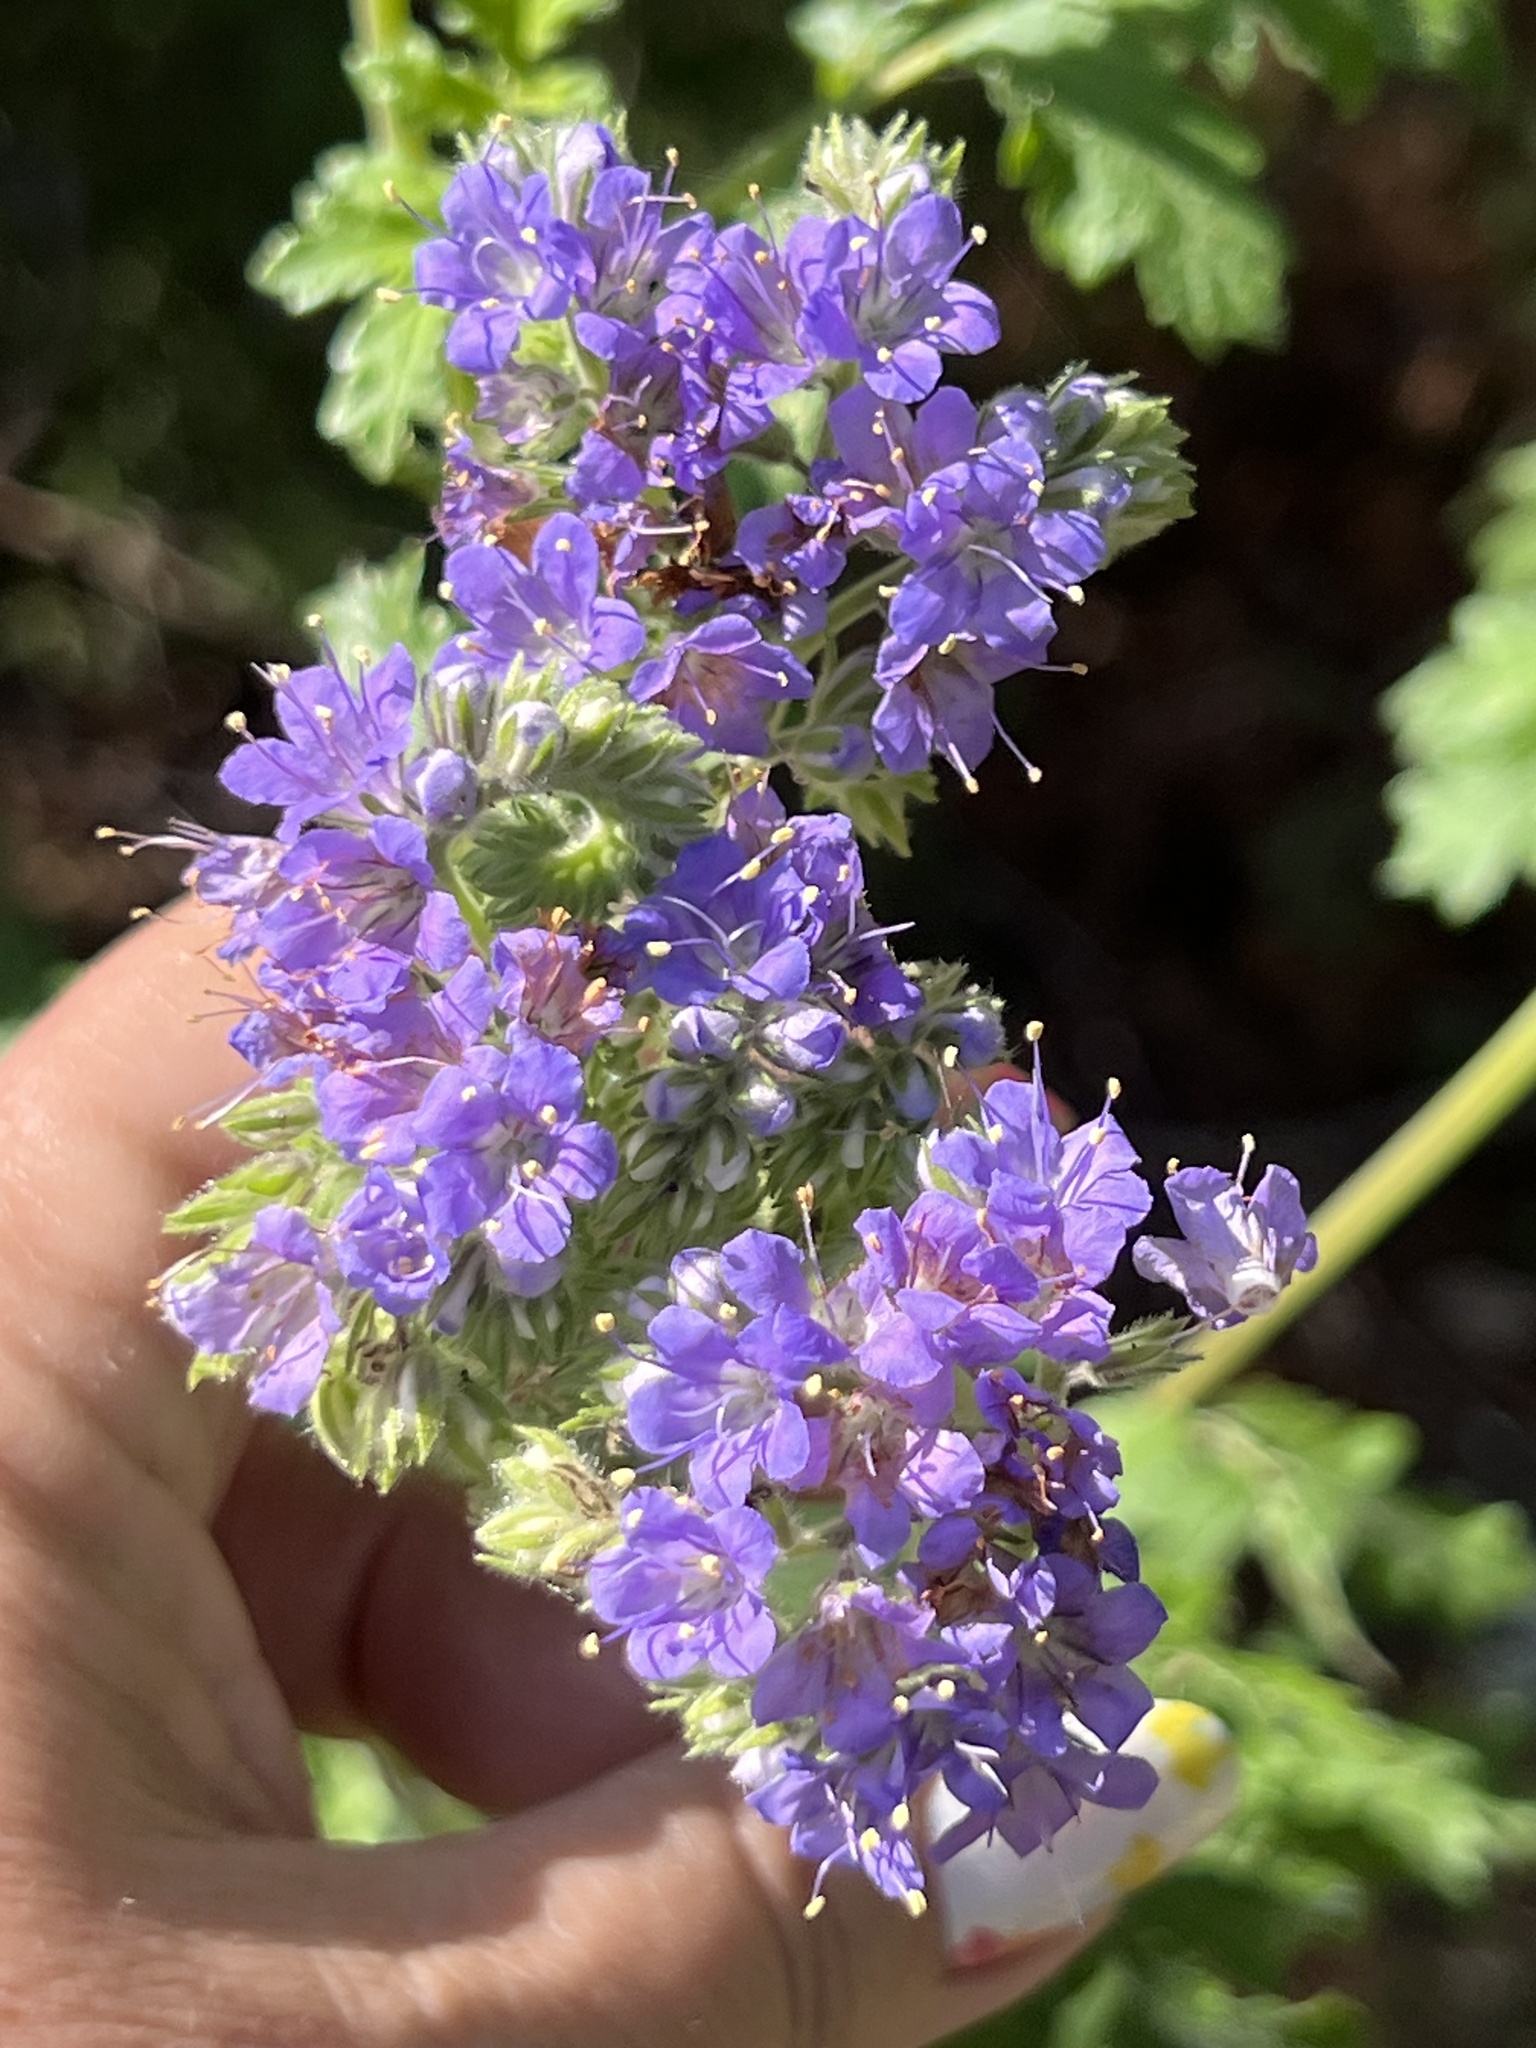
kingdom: Plantae
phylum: Tracheophyta
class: Magnoliopsida
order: Boraginales
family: Hydrophyllaceae
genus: Phacelia
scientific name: Phacelia congesta
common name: Blue curls
